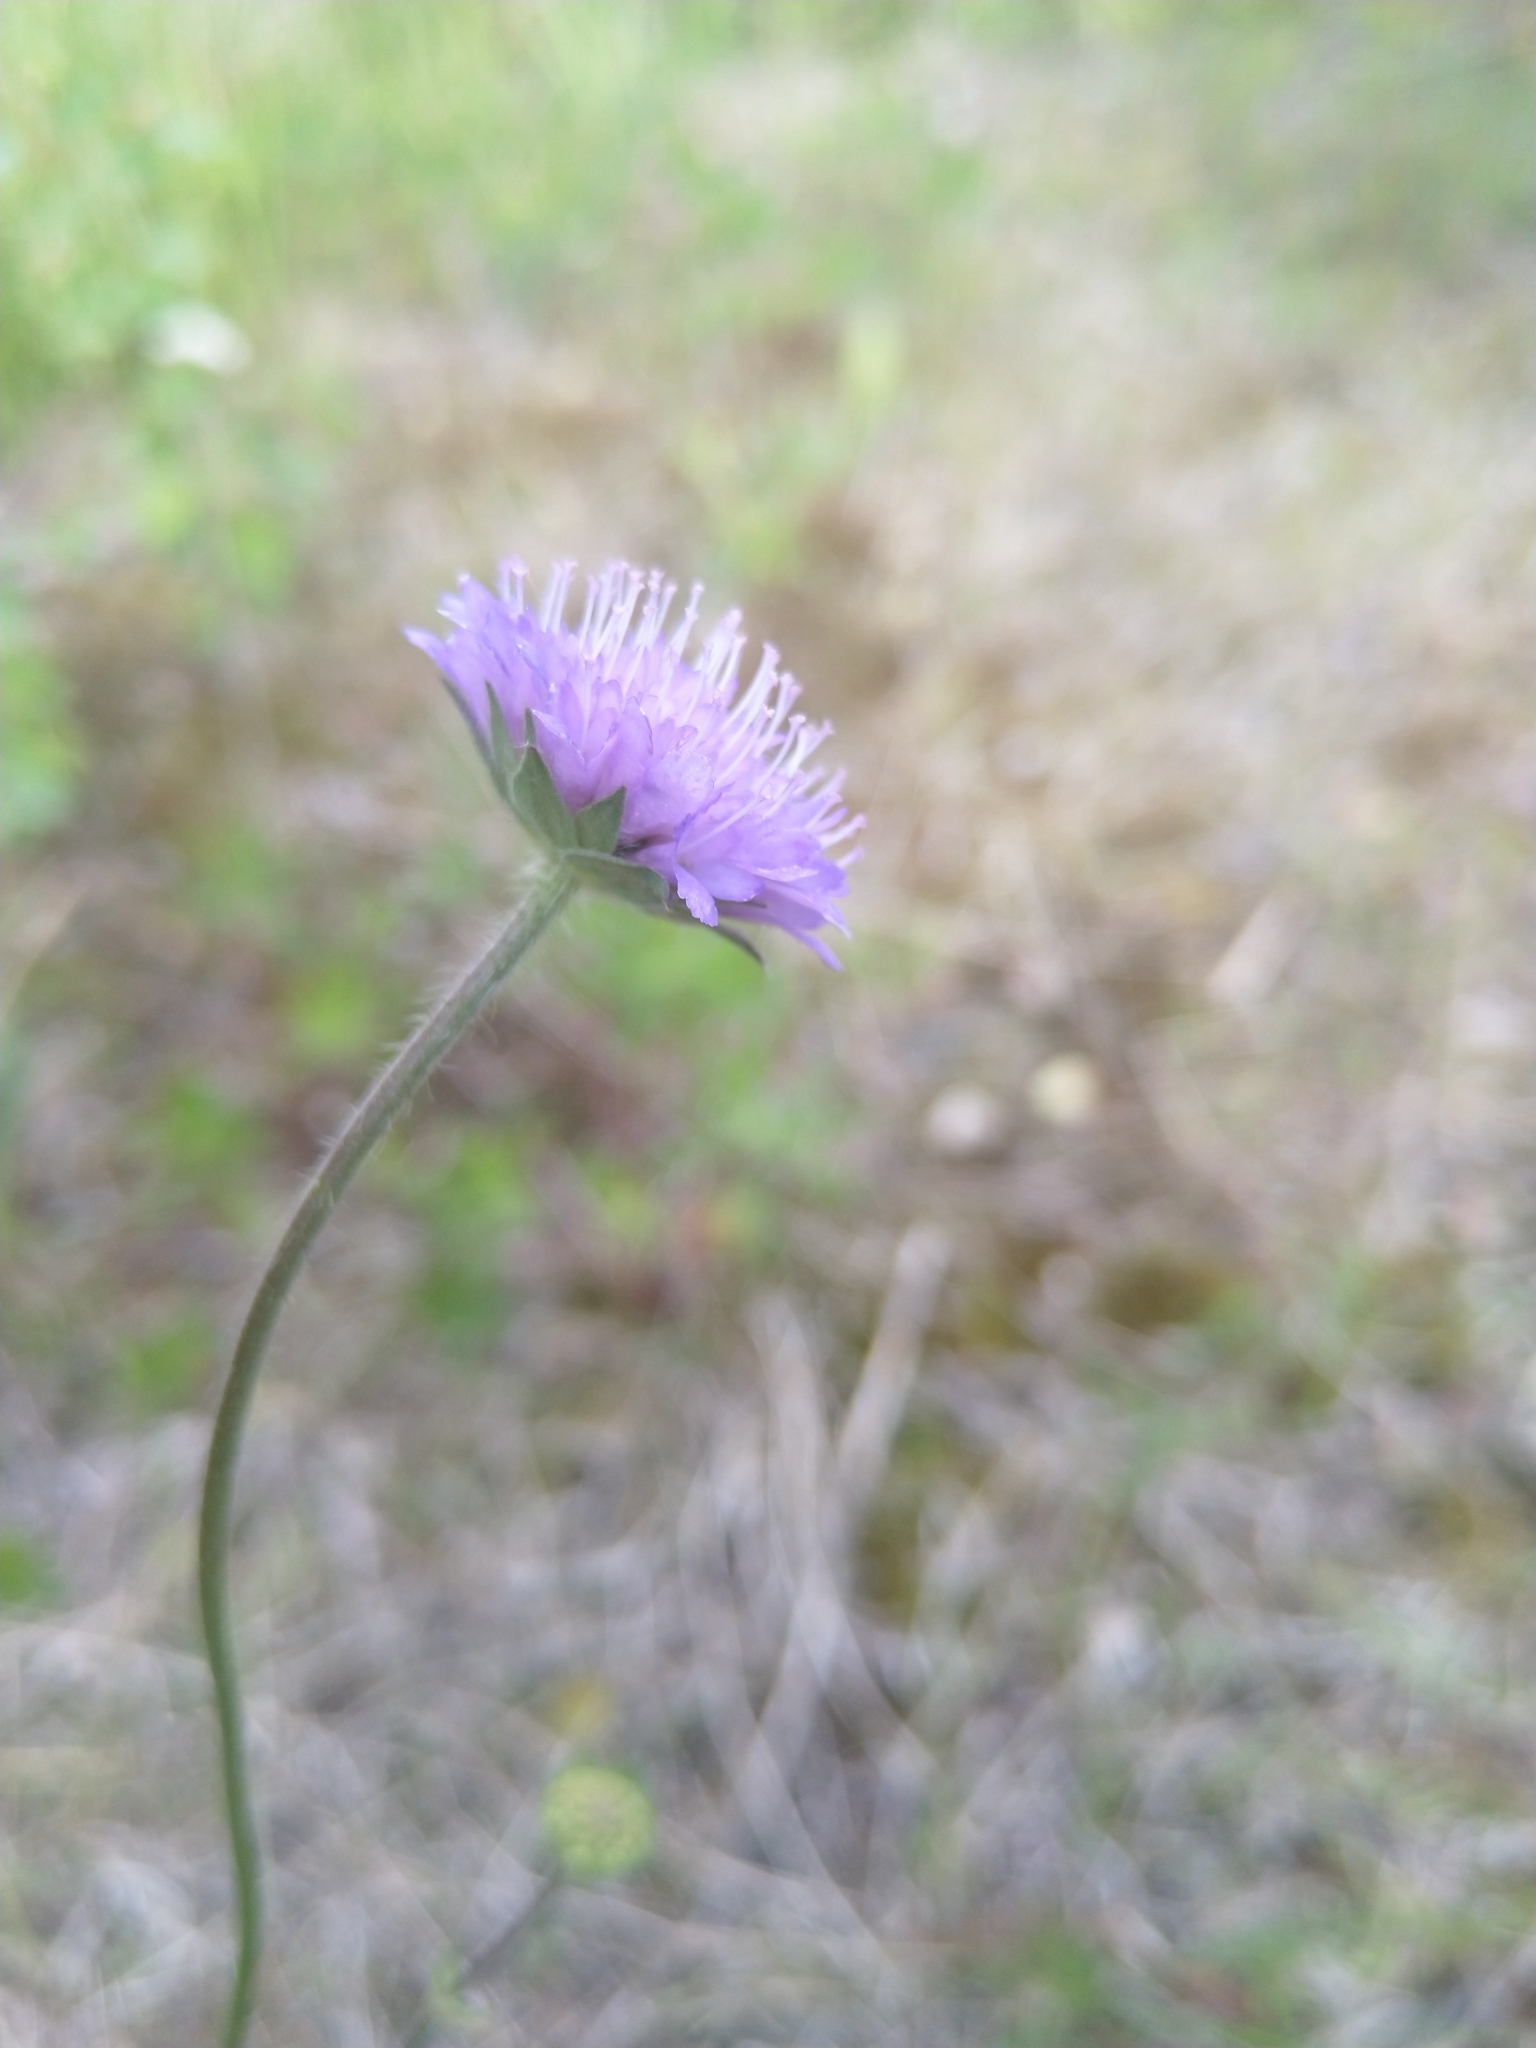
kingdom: Plantae
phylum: Tracheophyta
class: Magnoliopsida
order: Dipsacales
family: Caprifoliaceae
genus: Knautia
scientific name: Knautia arvensis
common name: Field scabiosa
